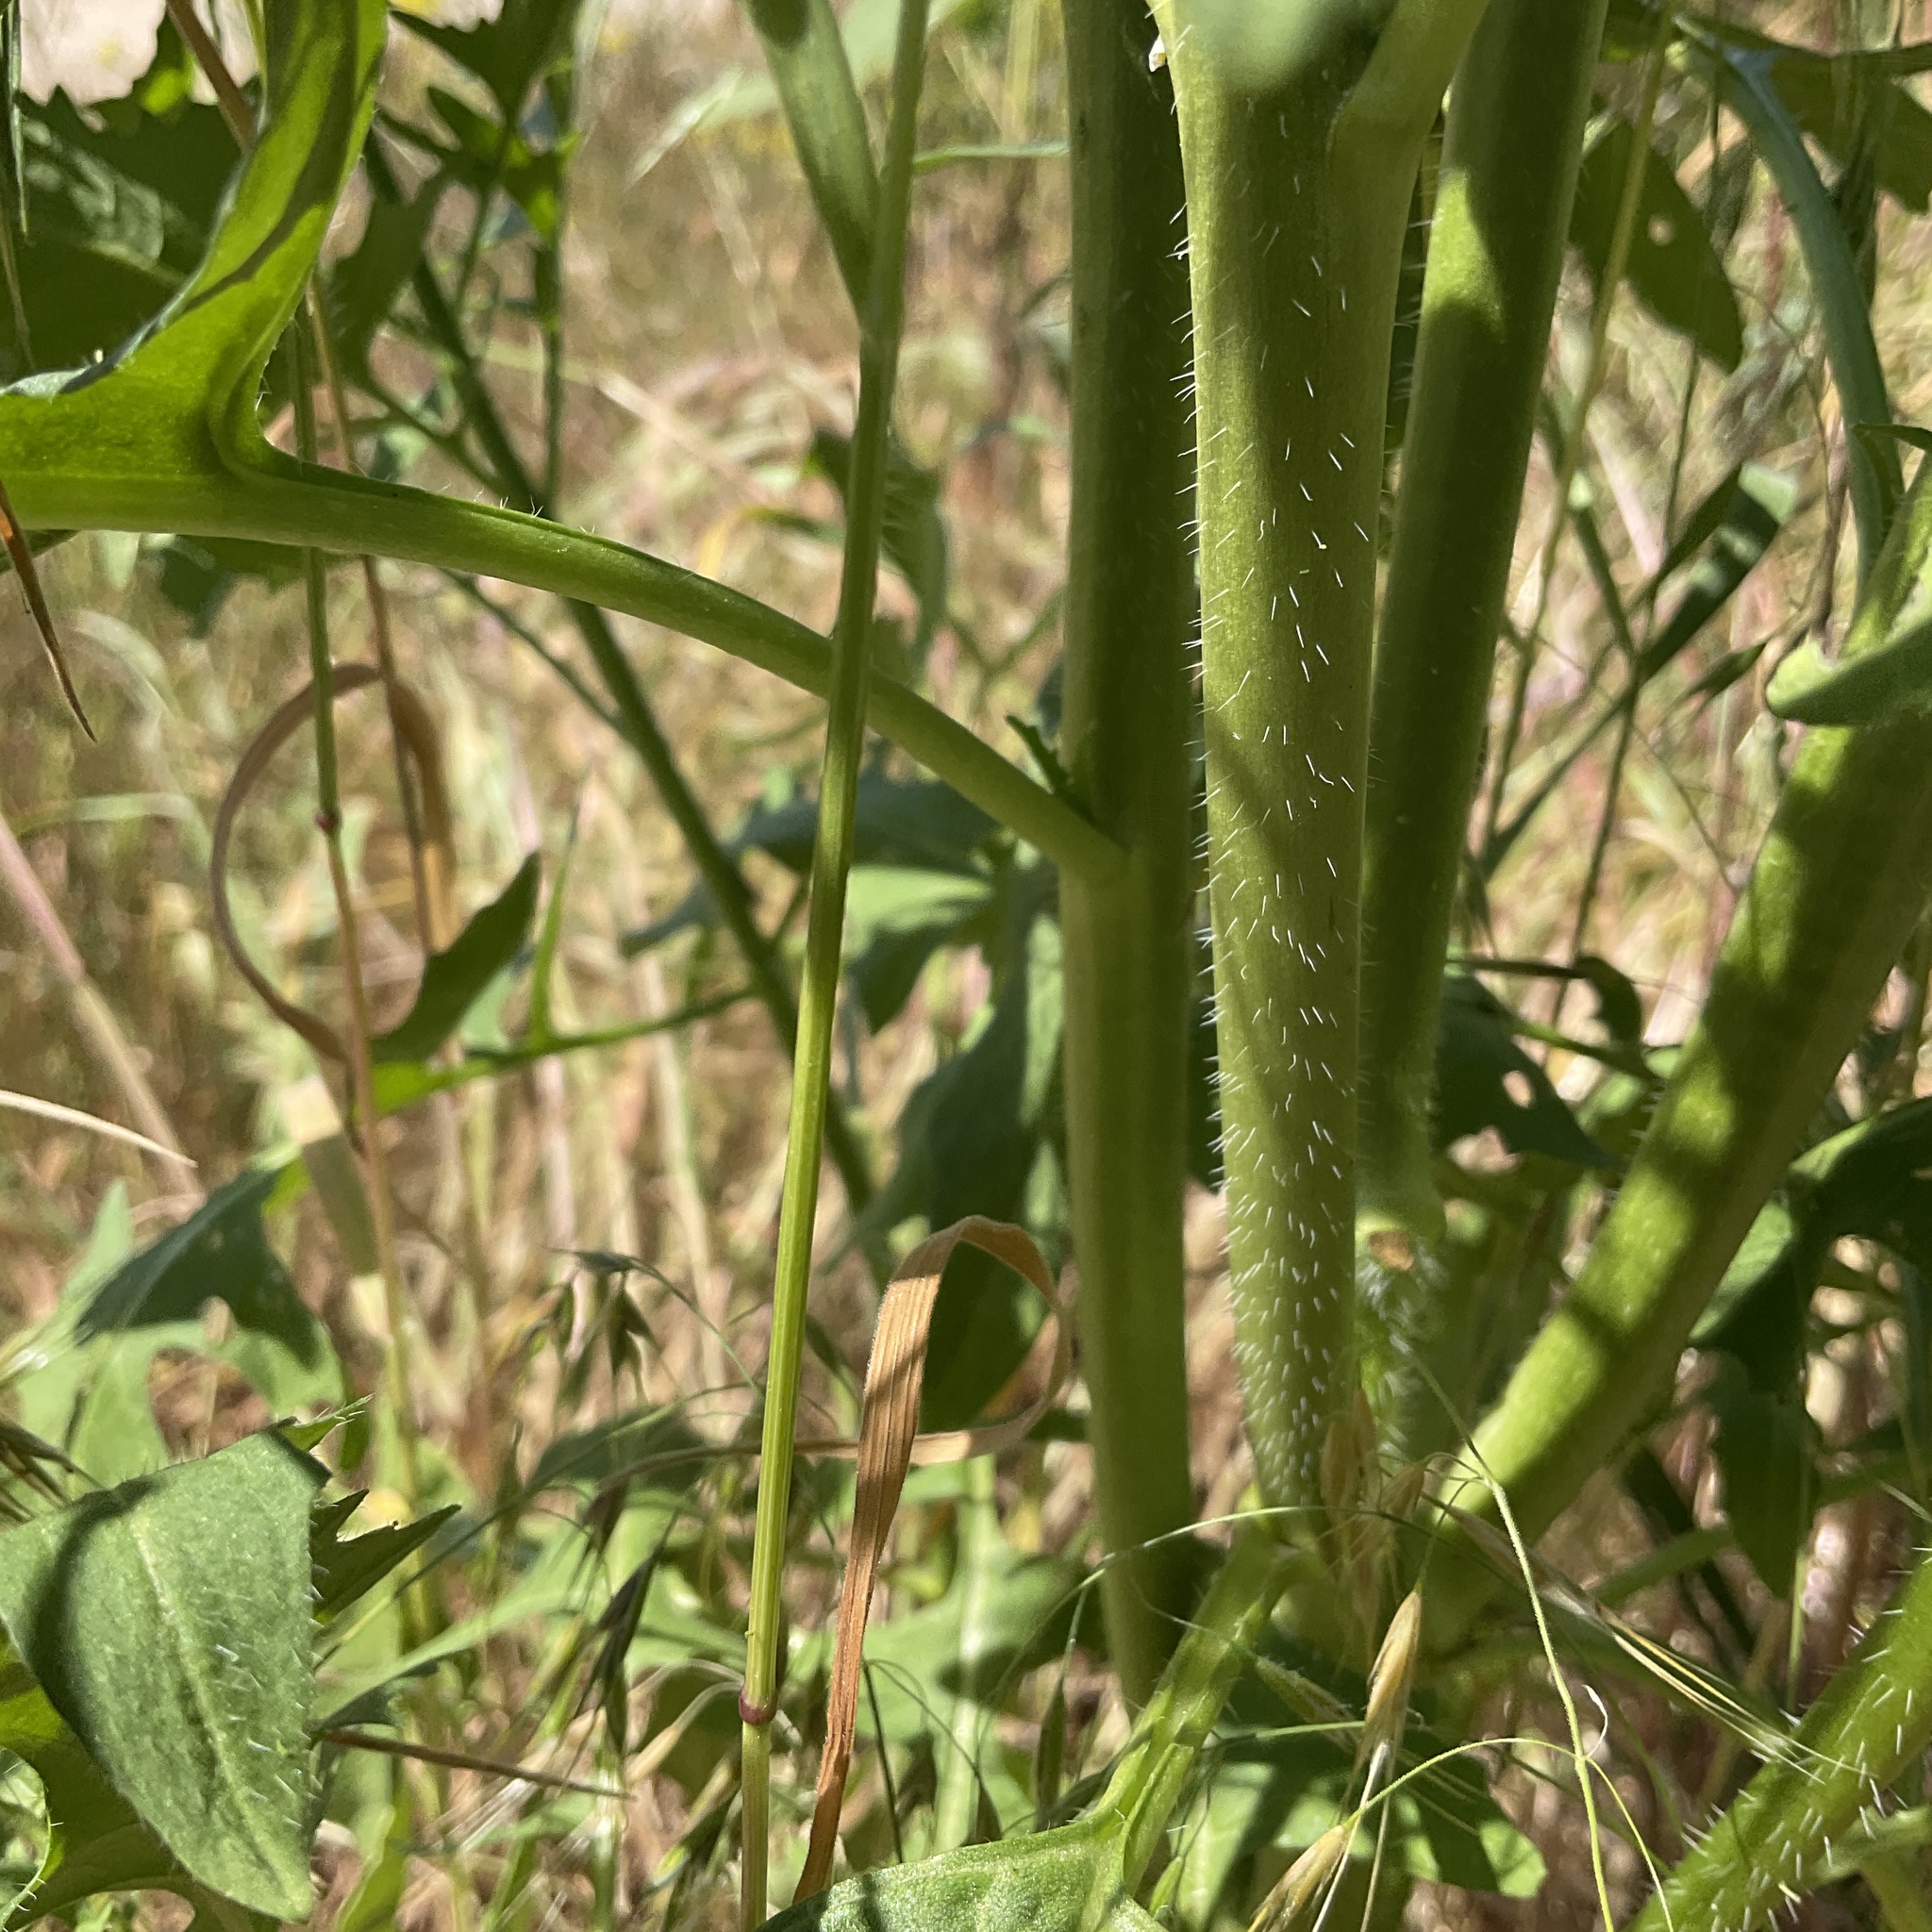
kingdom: Plantae
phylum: Tracheophyta
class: Magnoliopsida
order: Brassicales
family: Brassicaceae
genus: Sisymbrium
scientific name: Sisymbrium loeselii
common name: False london-rocket
